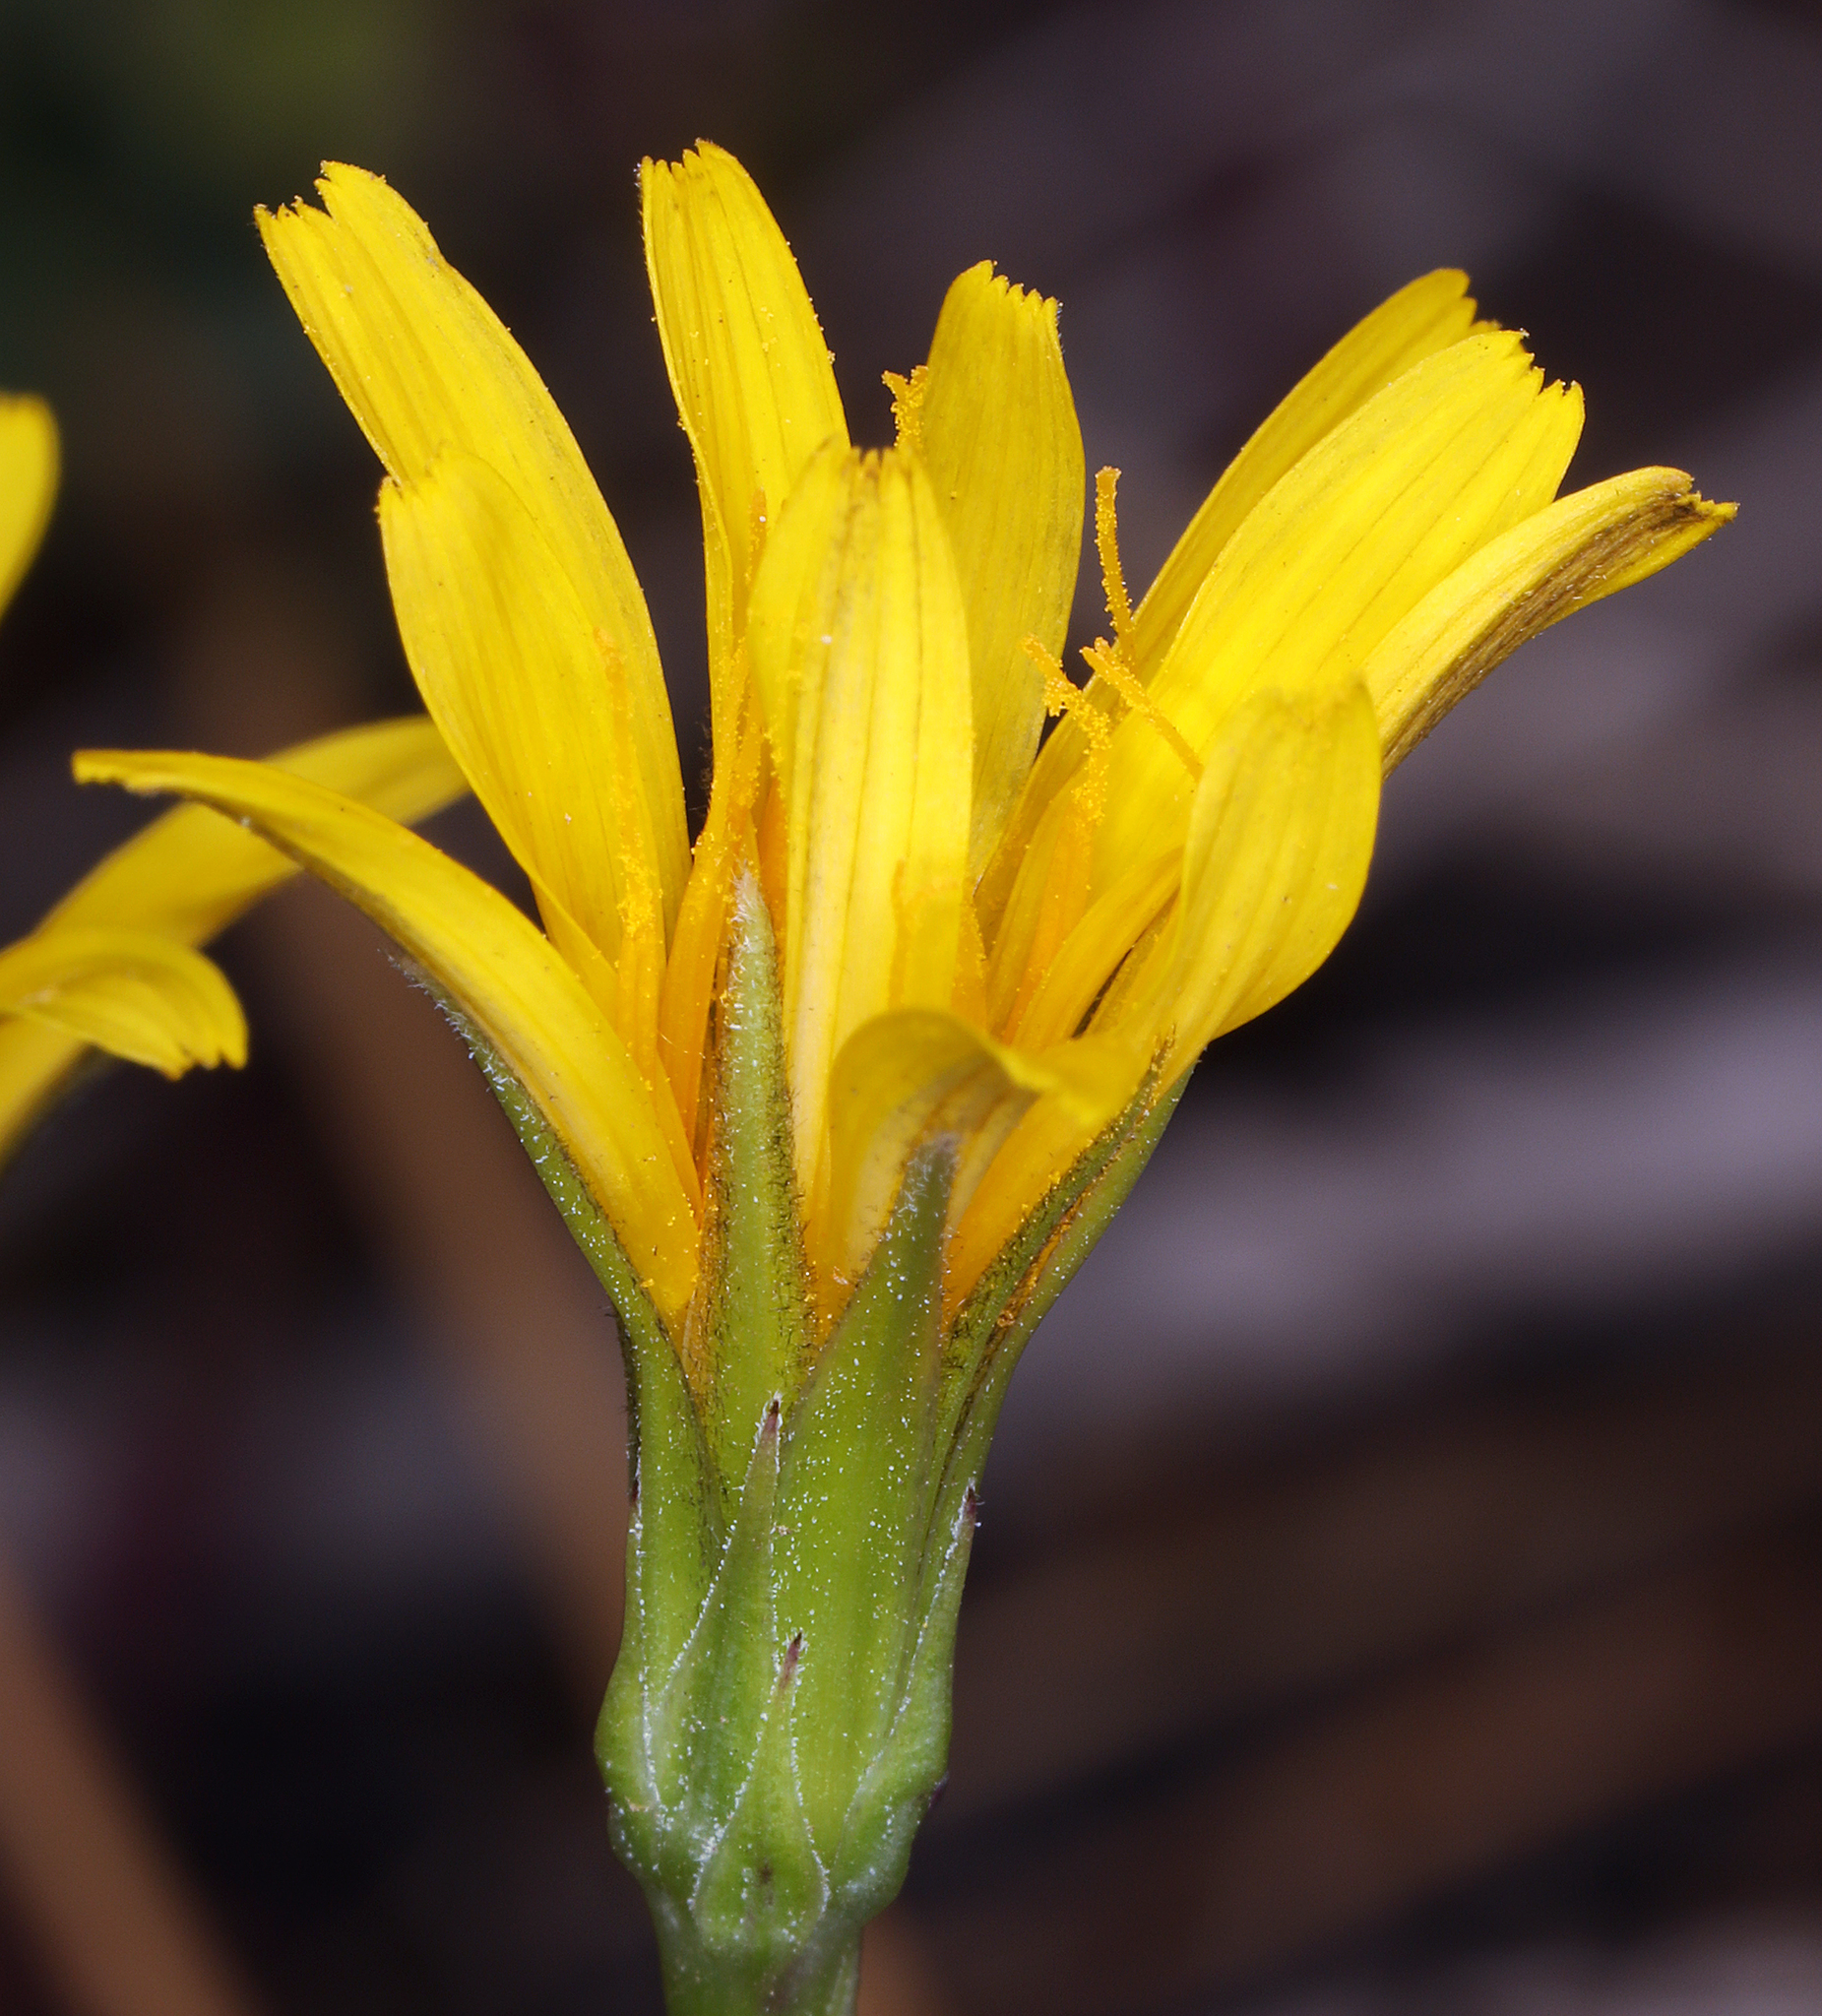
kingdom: Plantae
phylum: Tracheophyta
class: Magnoliopsida
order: Asterales
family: Asteraceae
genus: Microseris
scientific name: Microseris nutans
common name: Nodding microseris
